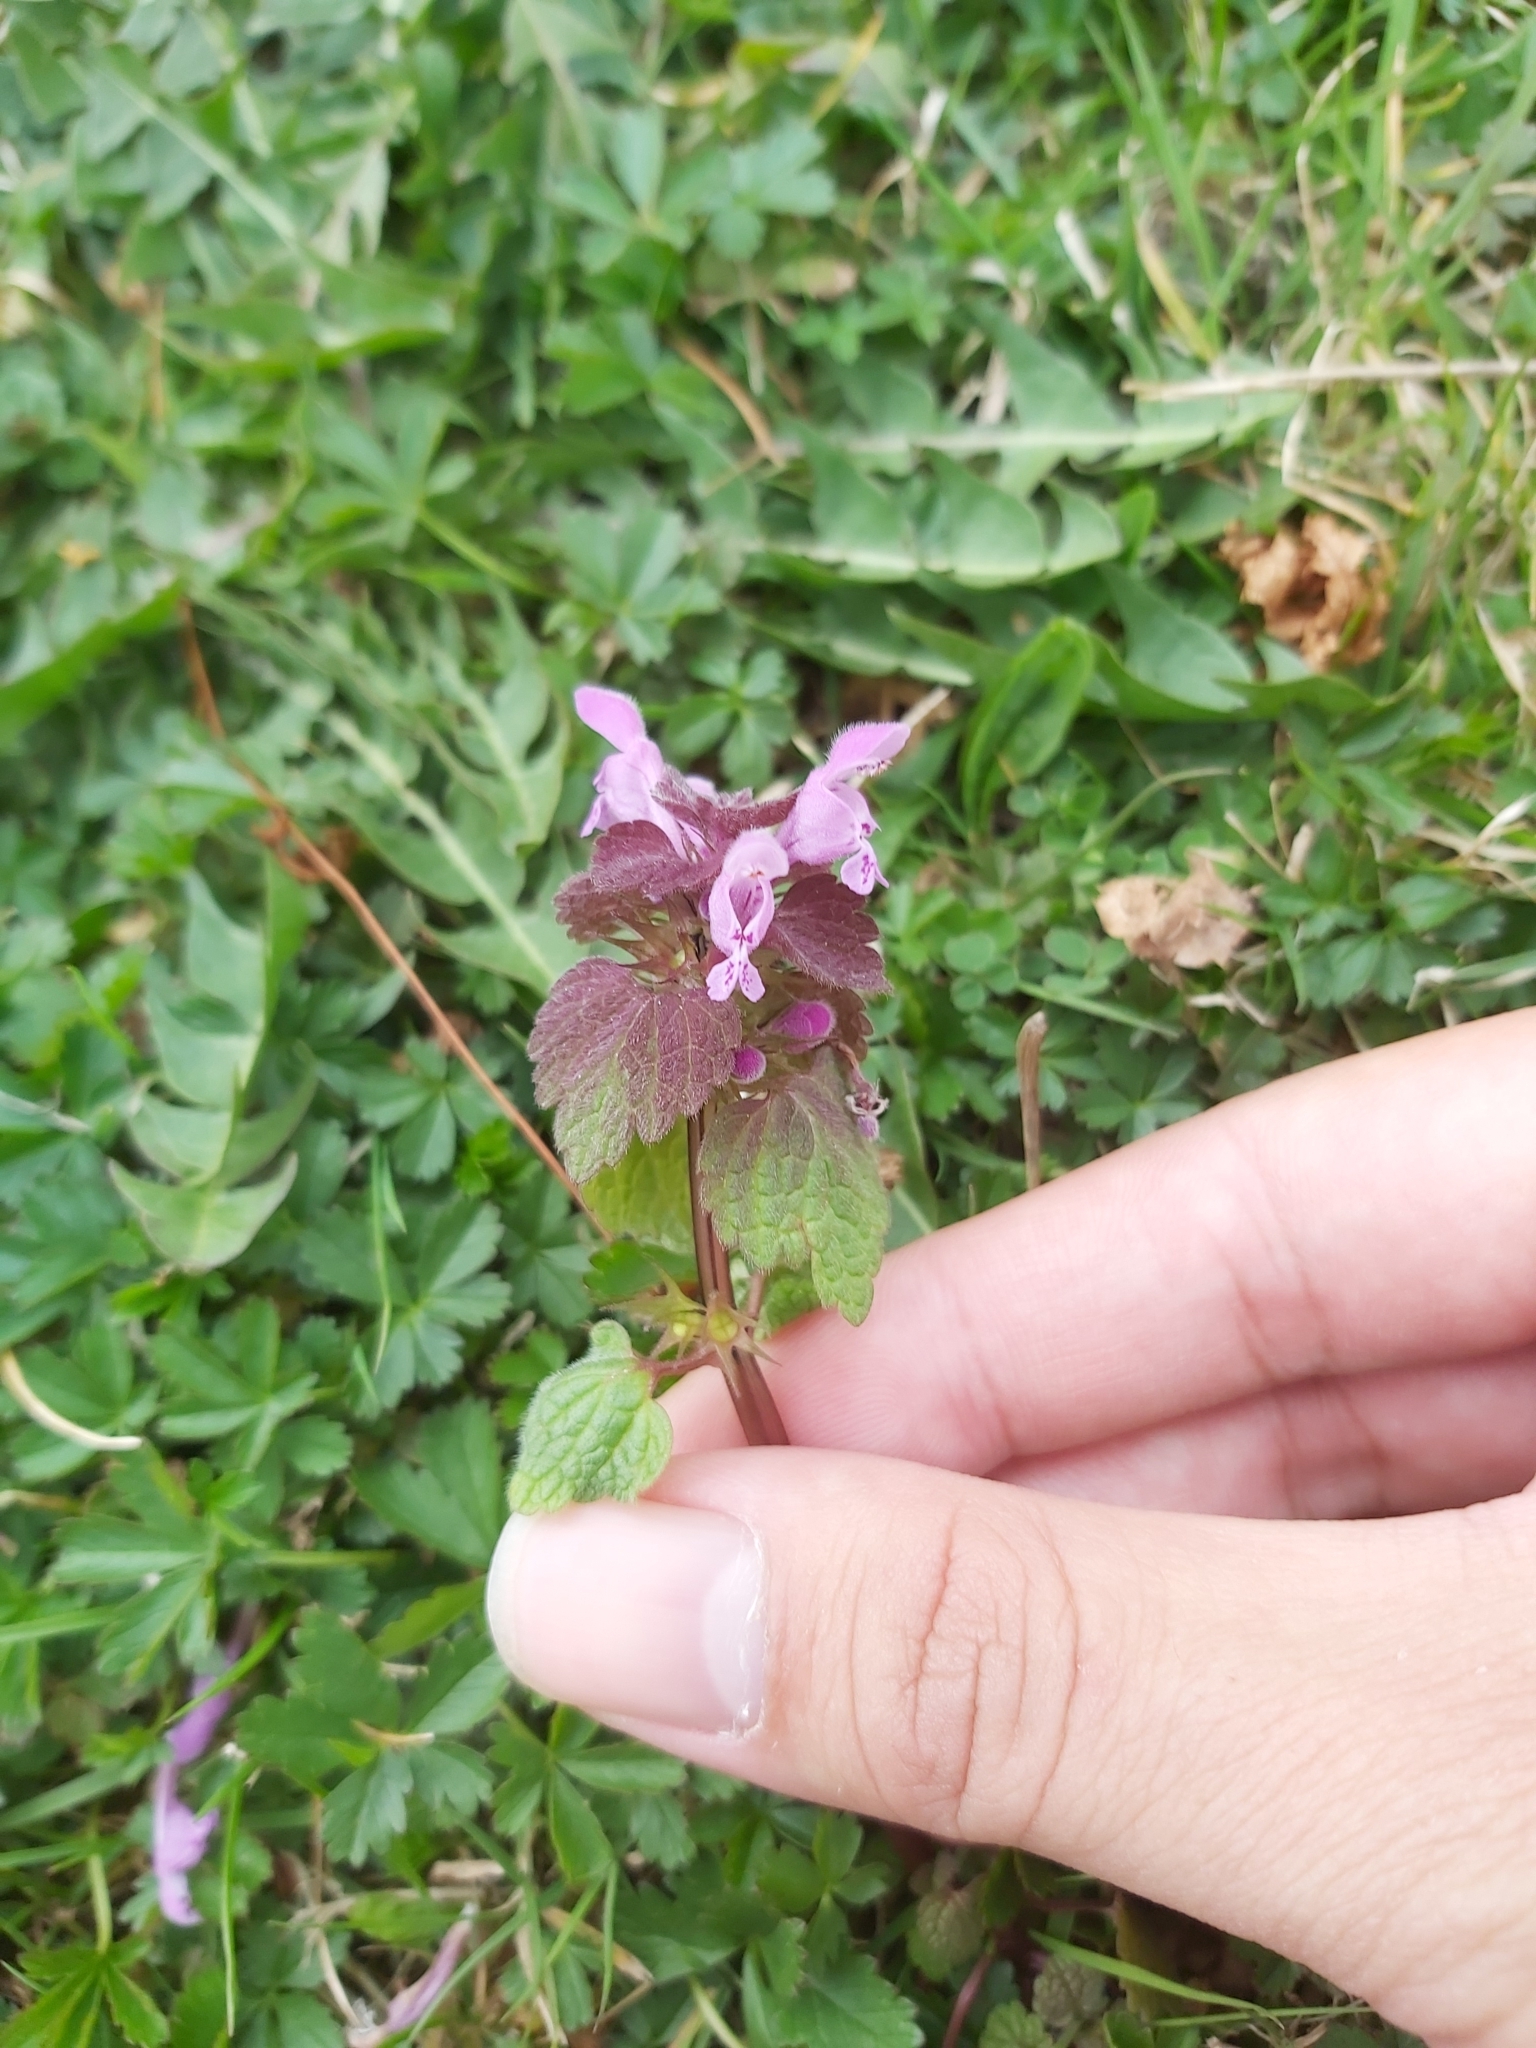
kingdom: Plantae
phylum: Tracheophyta
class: Magnoliopsida
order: Lamiales
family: Lamiaceae
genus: Lamium
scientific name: Lamium purpureum
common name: Red dead-nettle
